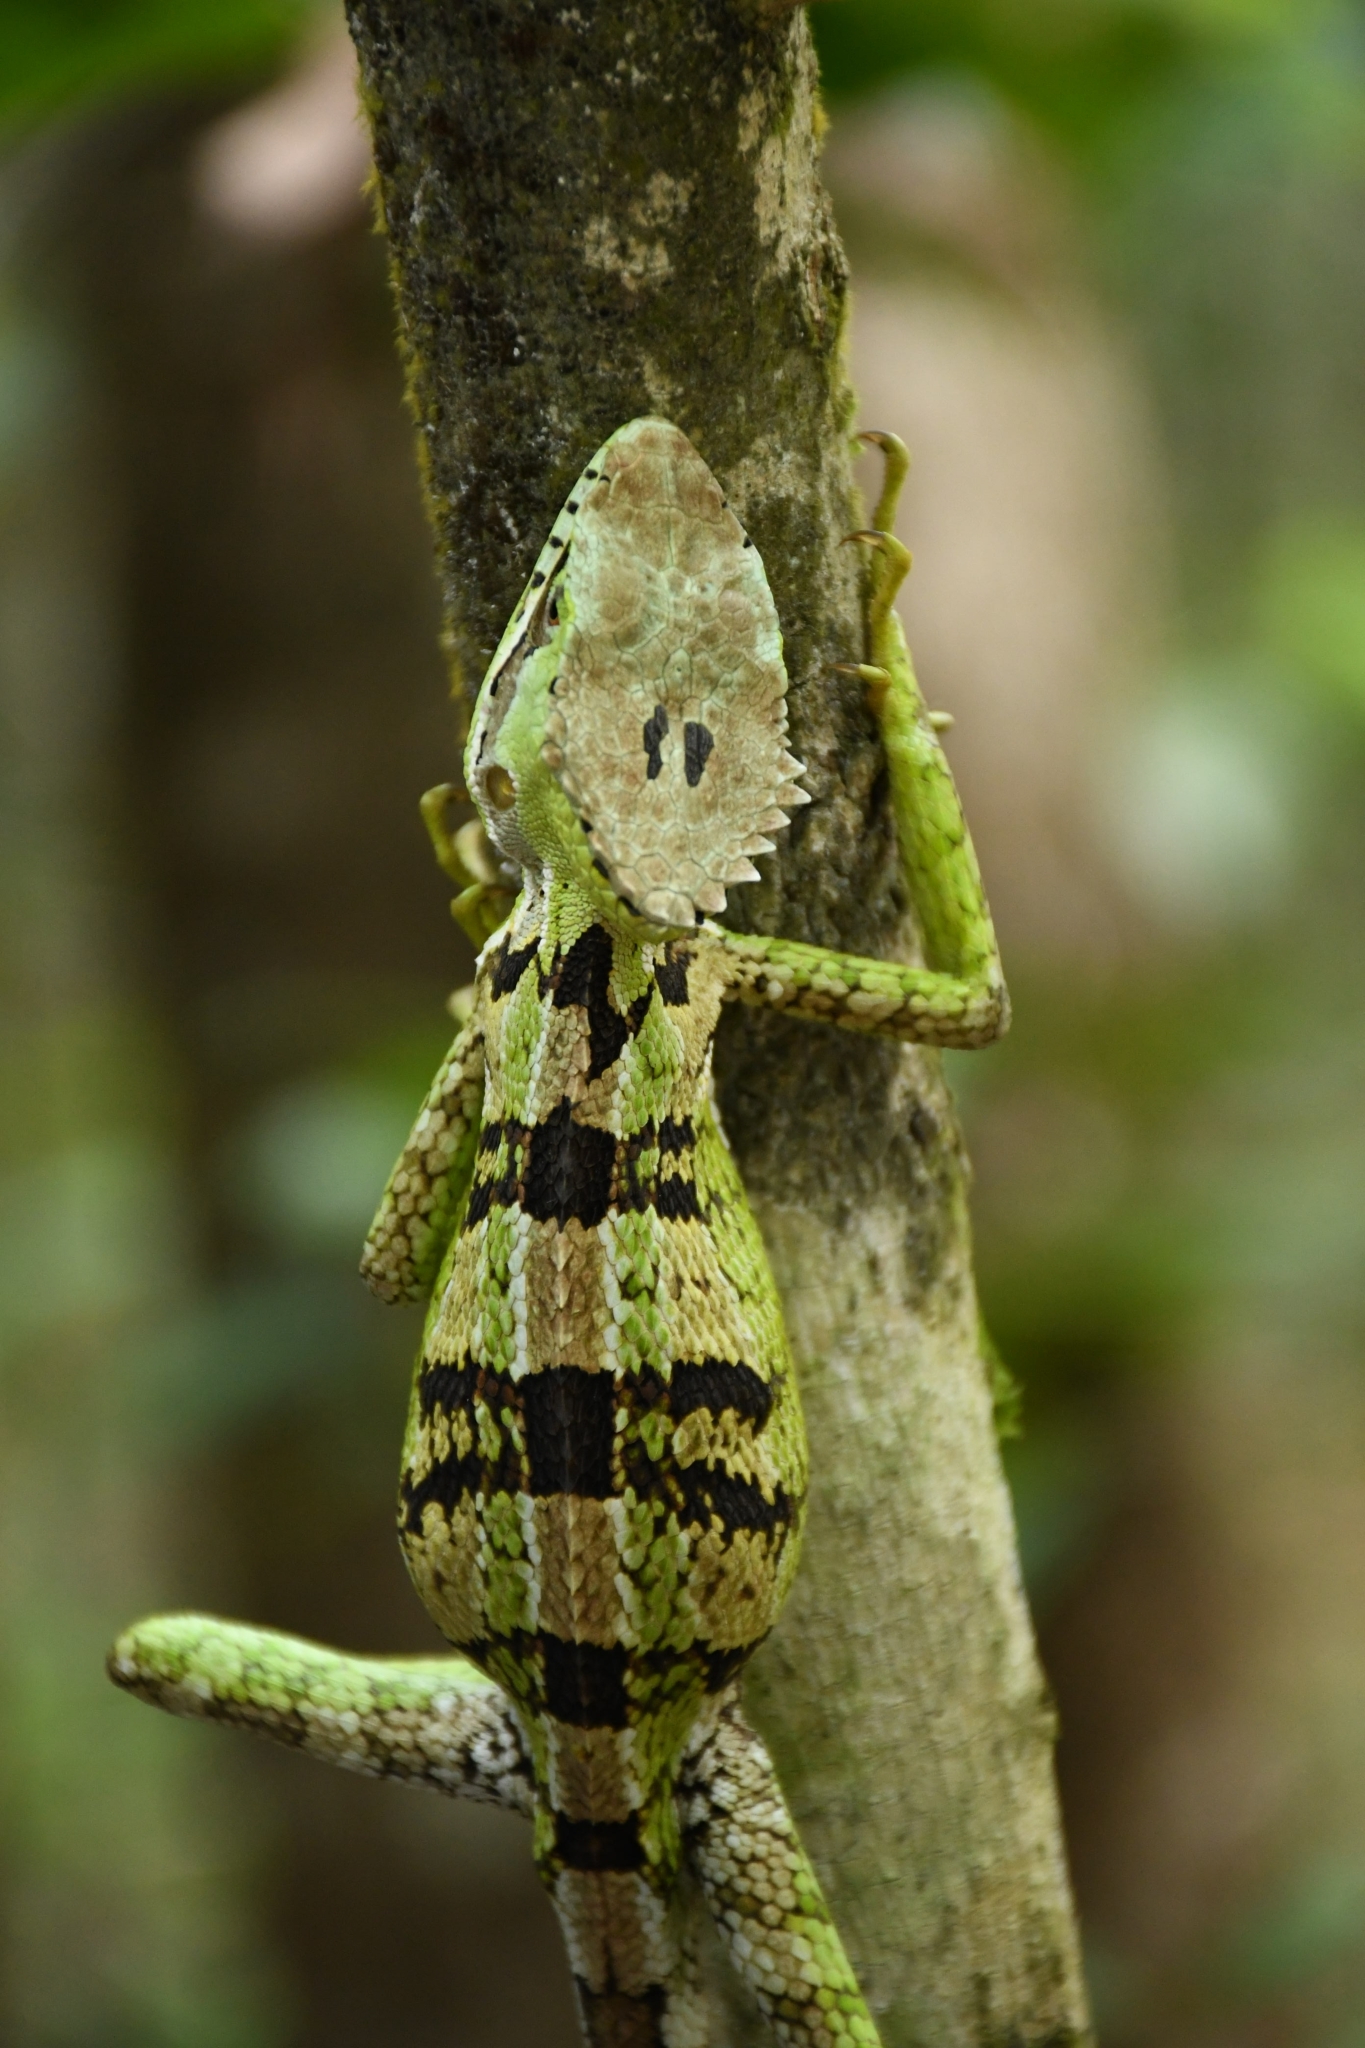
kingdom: Animalia
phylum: Chordata
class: Squamata
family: Corytophanidae
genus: Laemanctus
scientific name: Laemanctus serratus
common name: Serrated casquehead iguana
